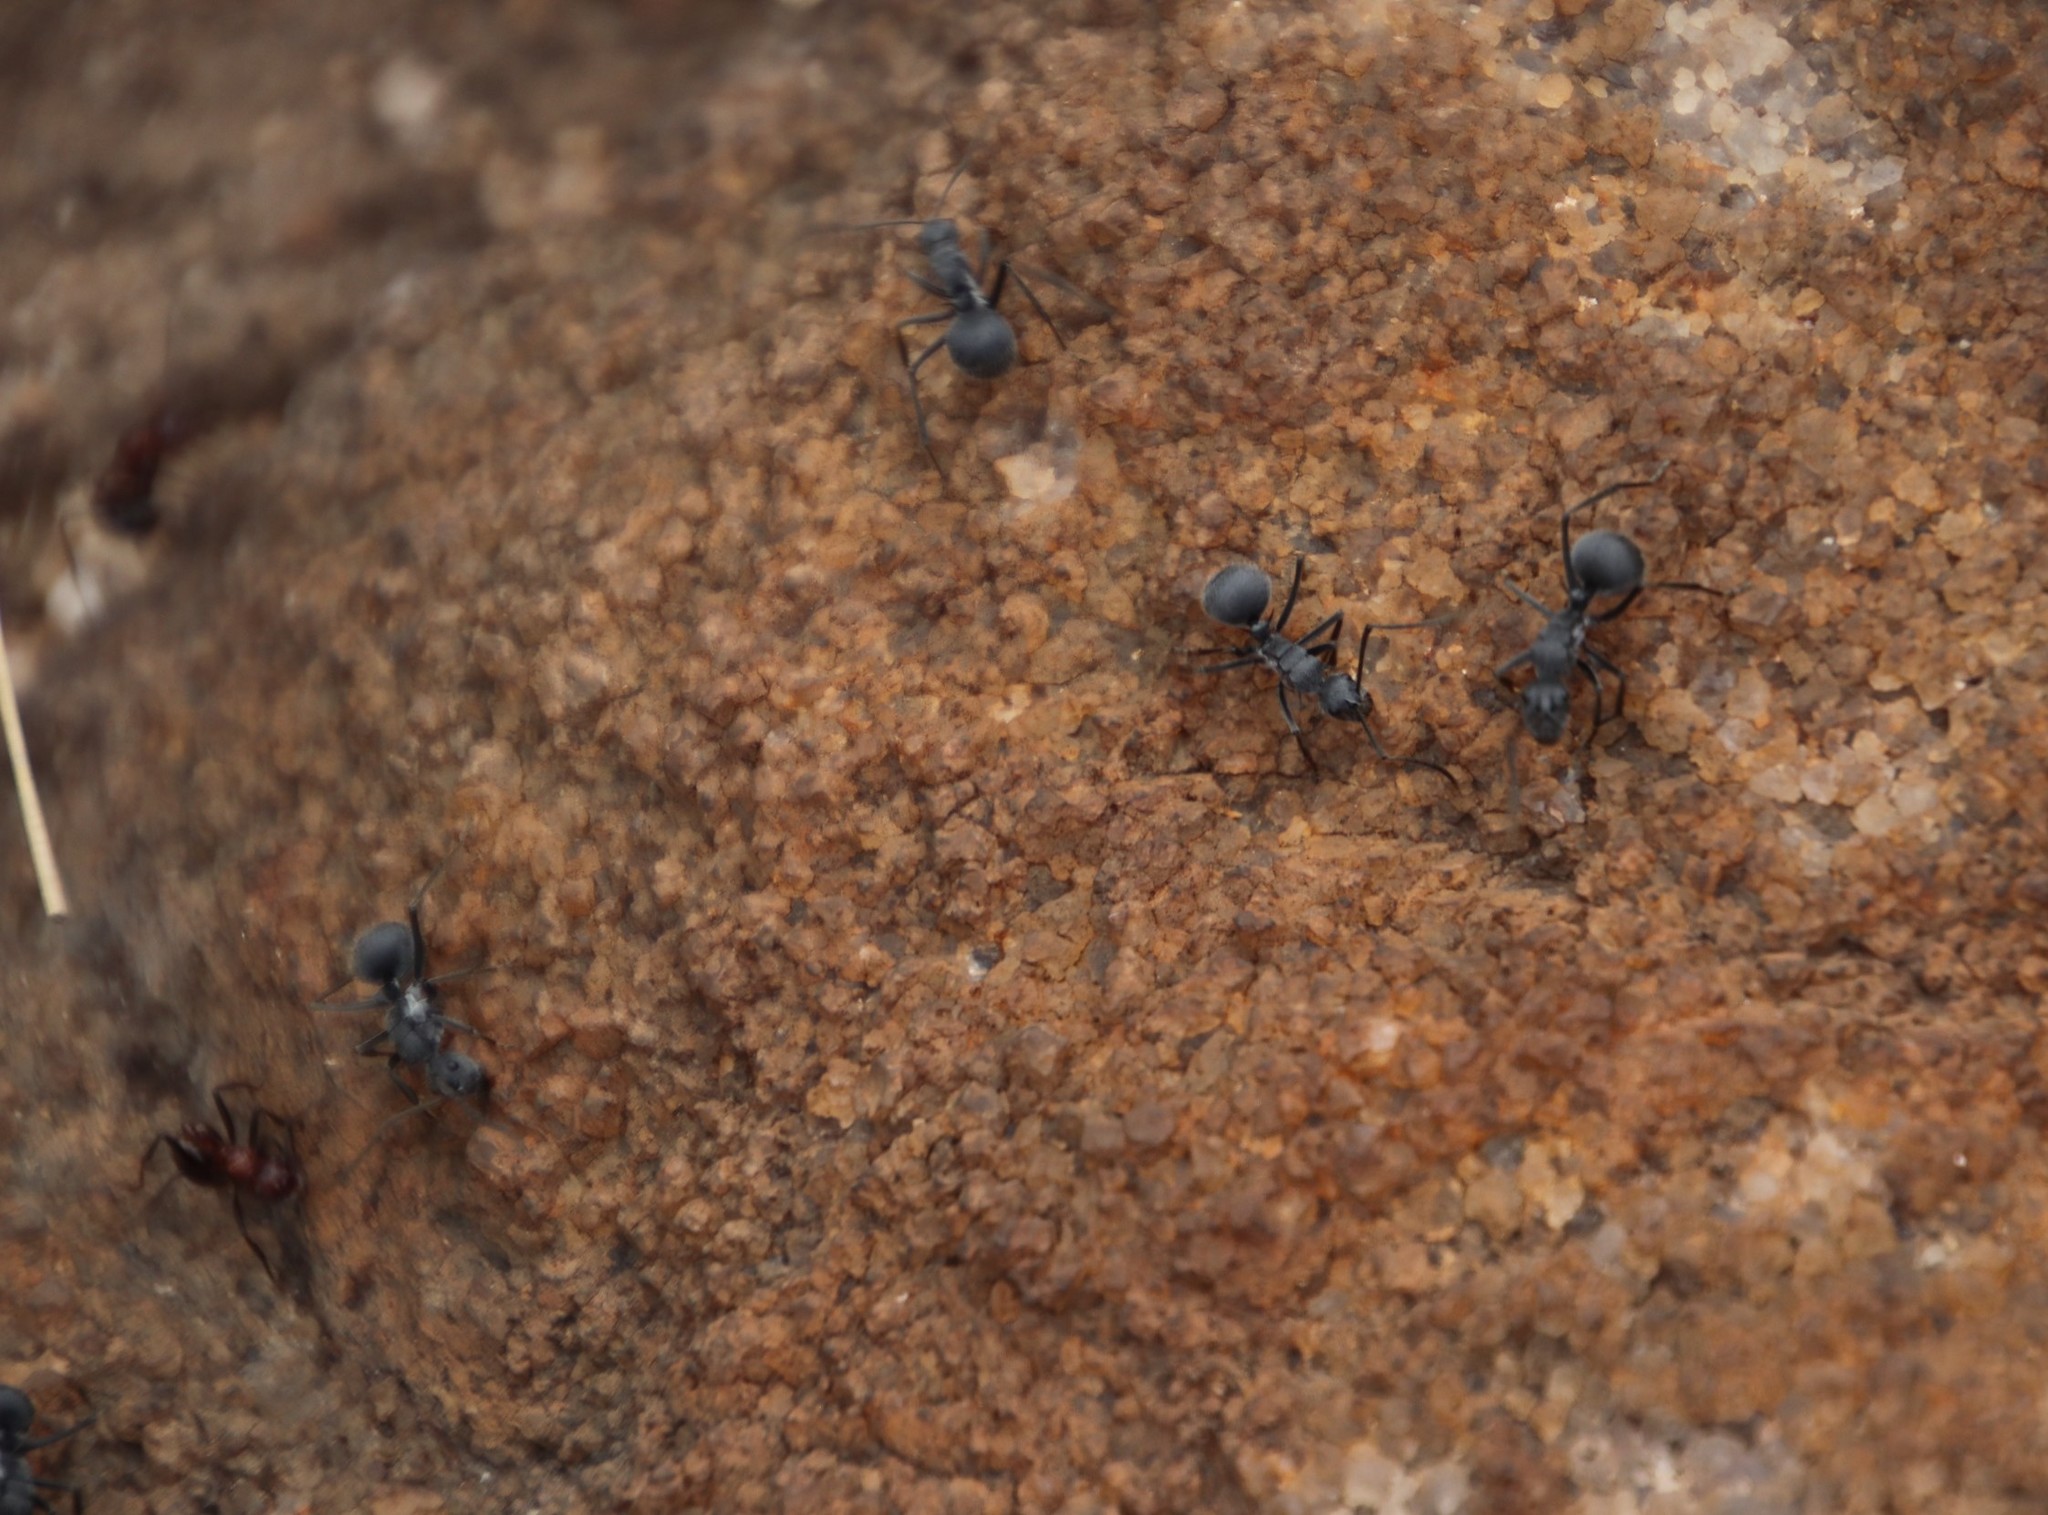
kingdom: Animalia
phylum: Arthropoda
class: Insecta
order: Hymenoptera
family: Formicidae
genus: Polyrhachis
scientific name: Polyrhachis schistacea
